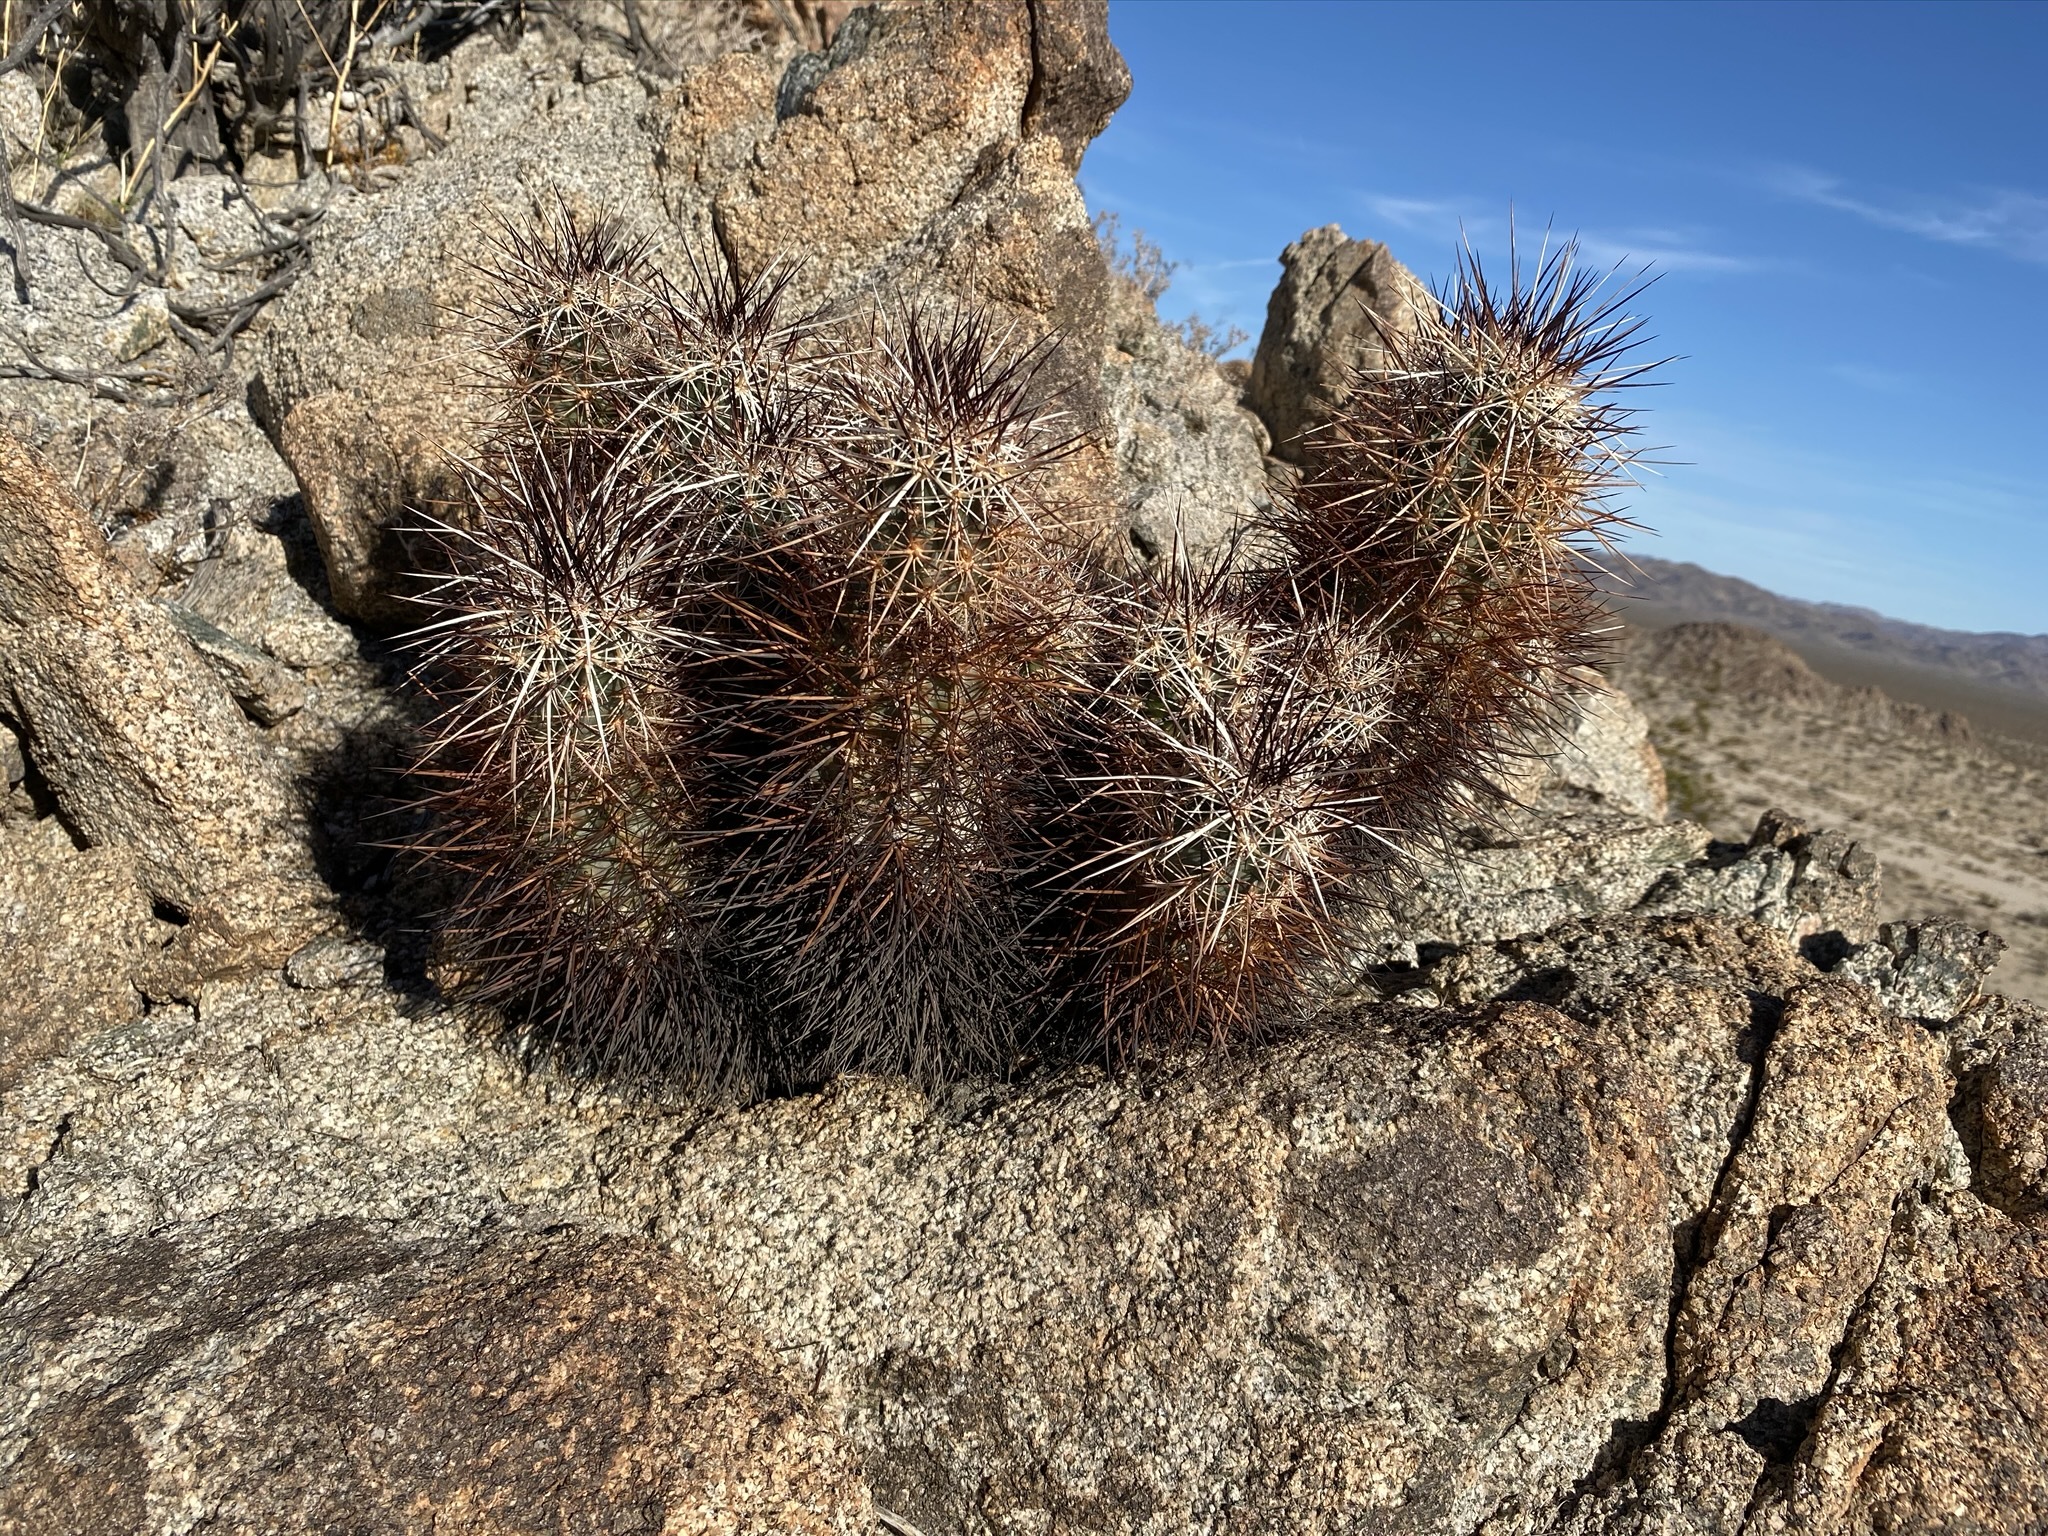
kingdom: Plantae
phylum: Tracheophyta
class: Magnoliopsida
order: Caryophyllales
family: Cactaceae
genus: Echinocereus
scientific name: Echinocereus engelmannii
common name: Engelmann's hedgehog cactus
